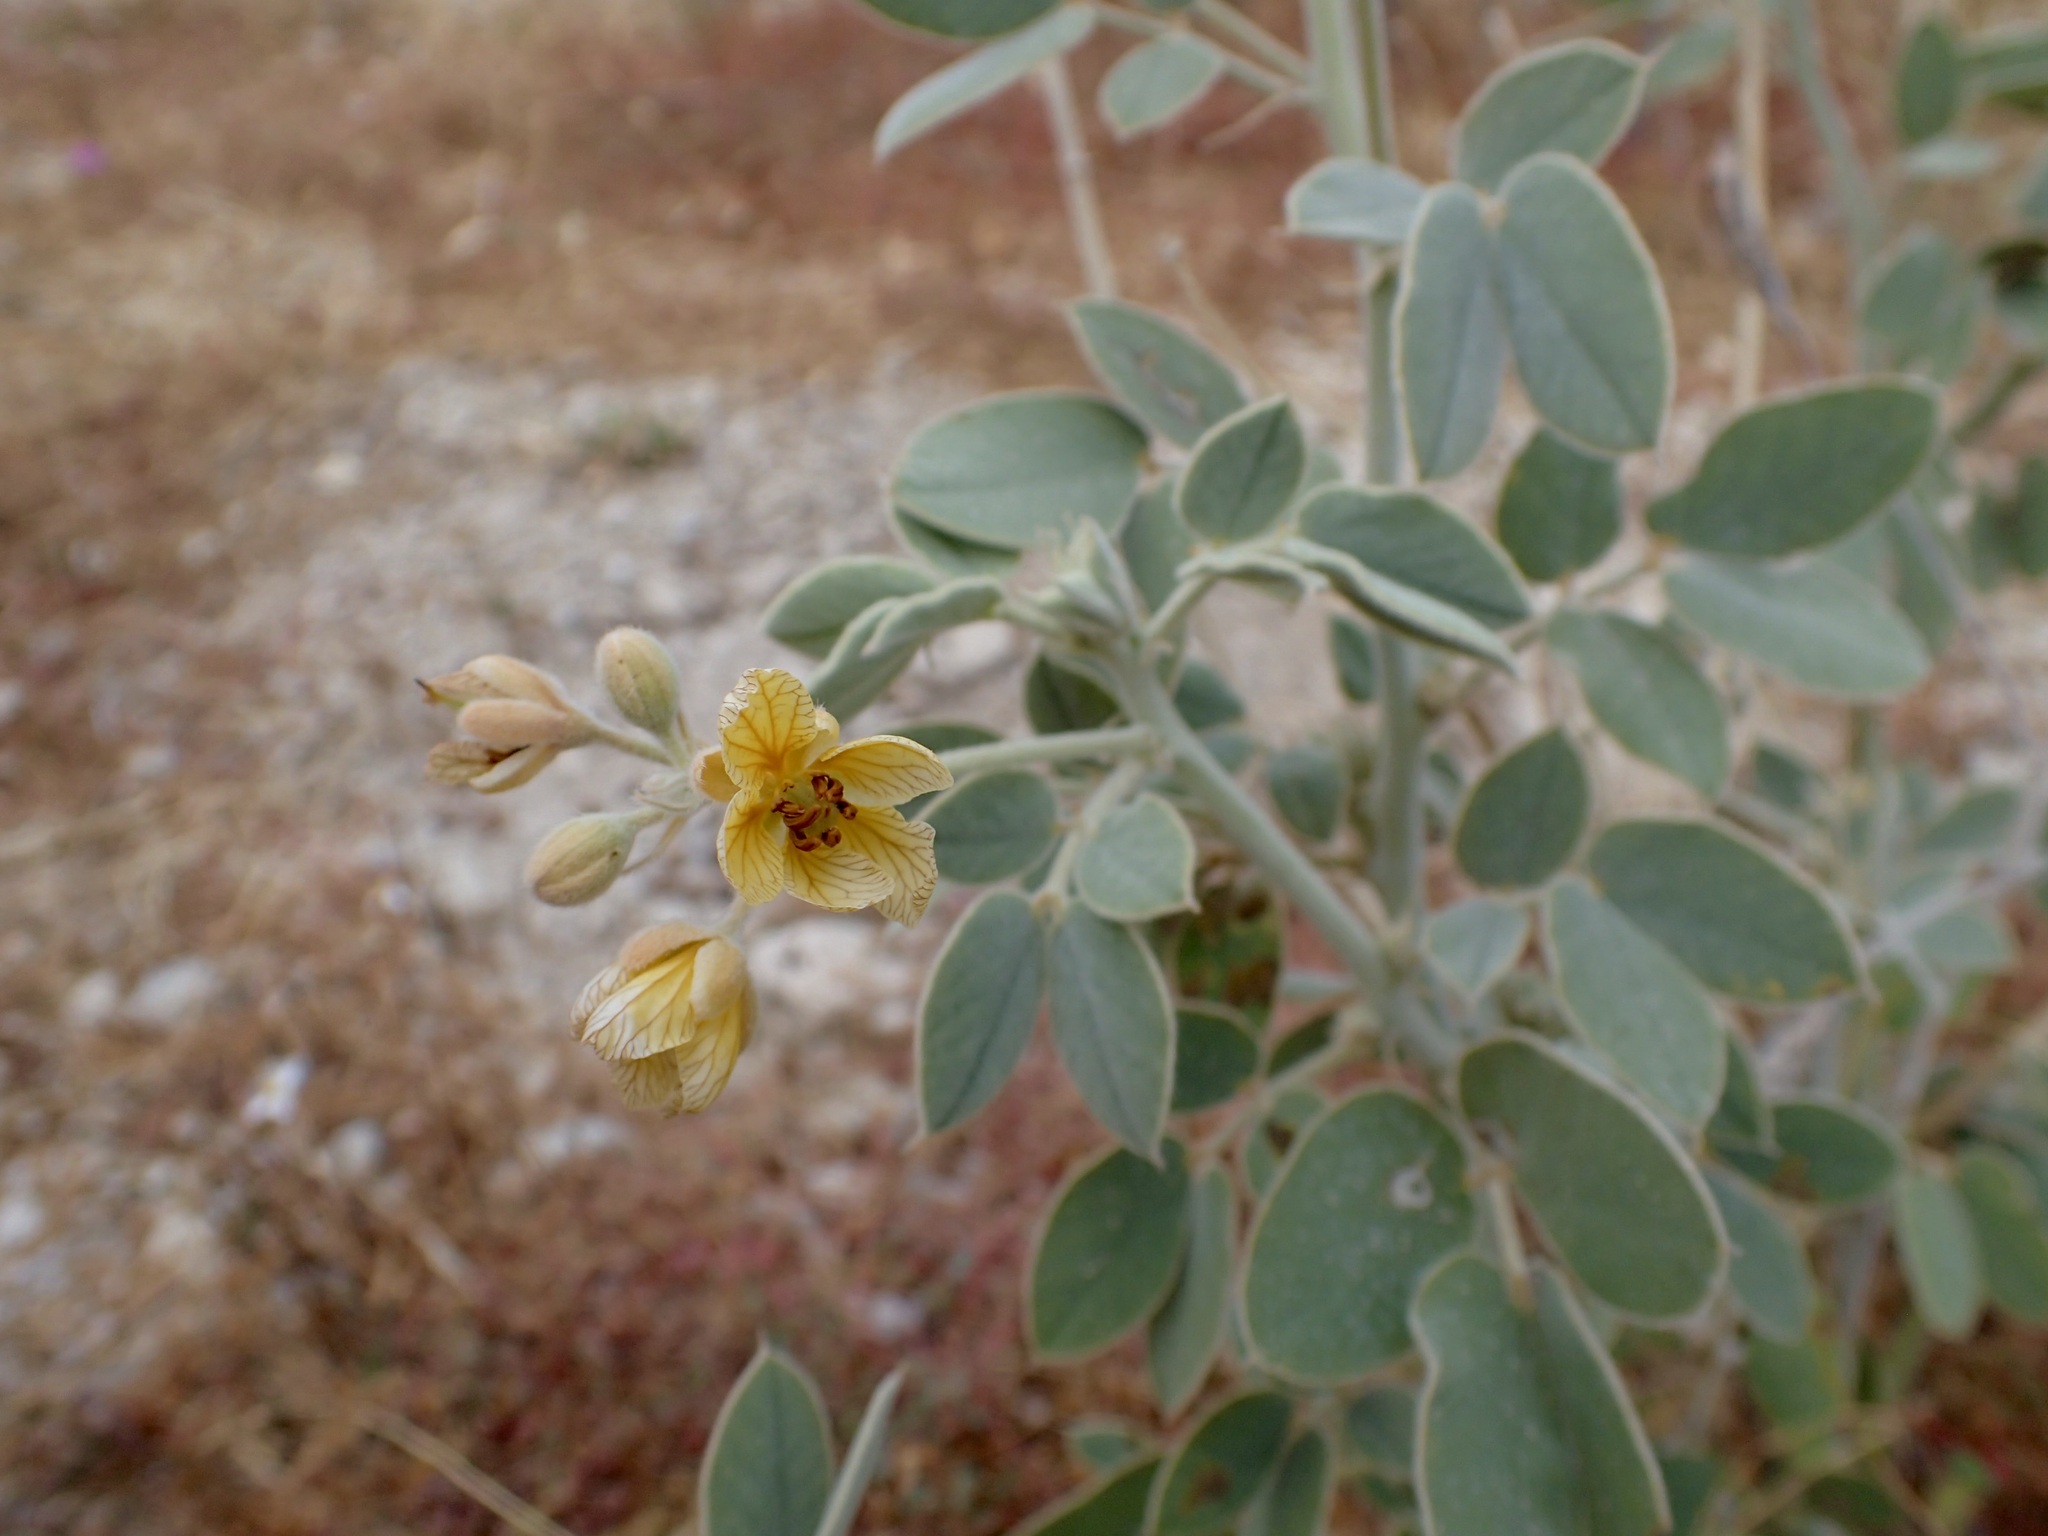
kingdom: Plantae
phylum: Tracheophyta
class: Magnoliopsida
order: Fabales
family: Fabaceae
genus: Senna
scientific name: Senna confinis
